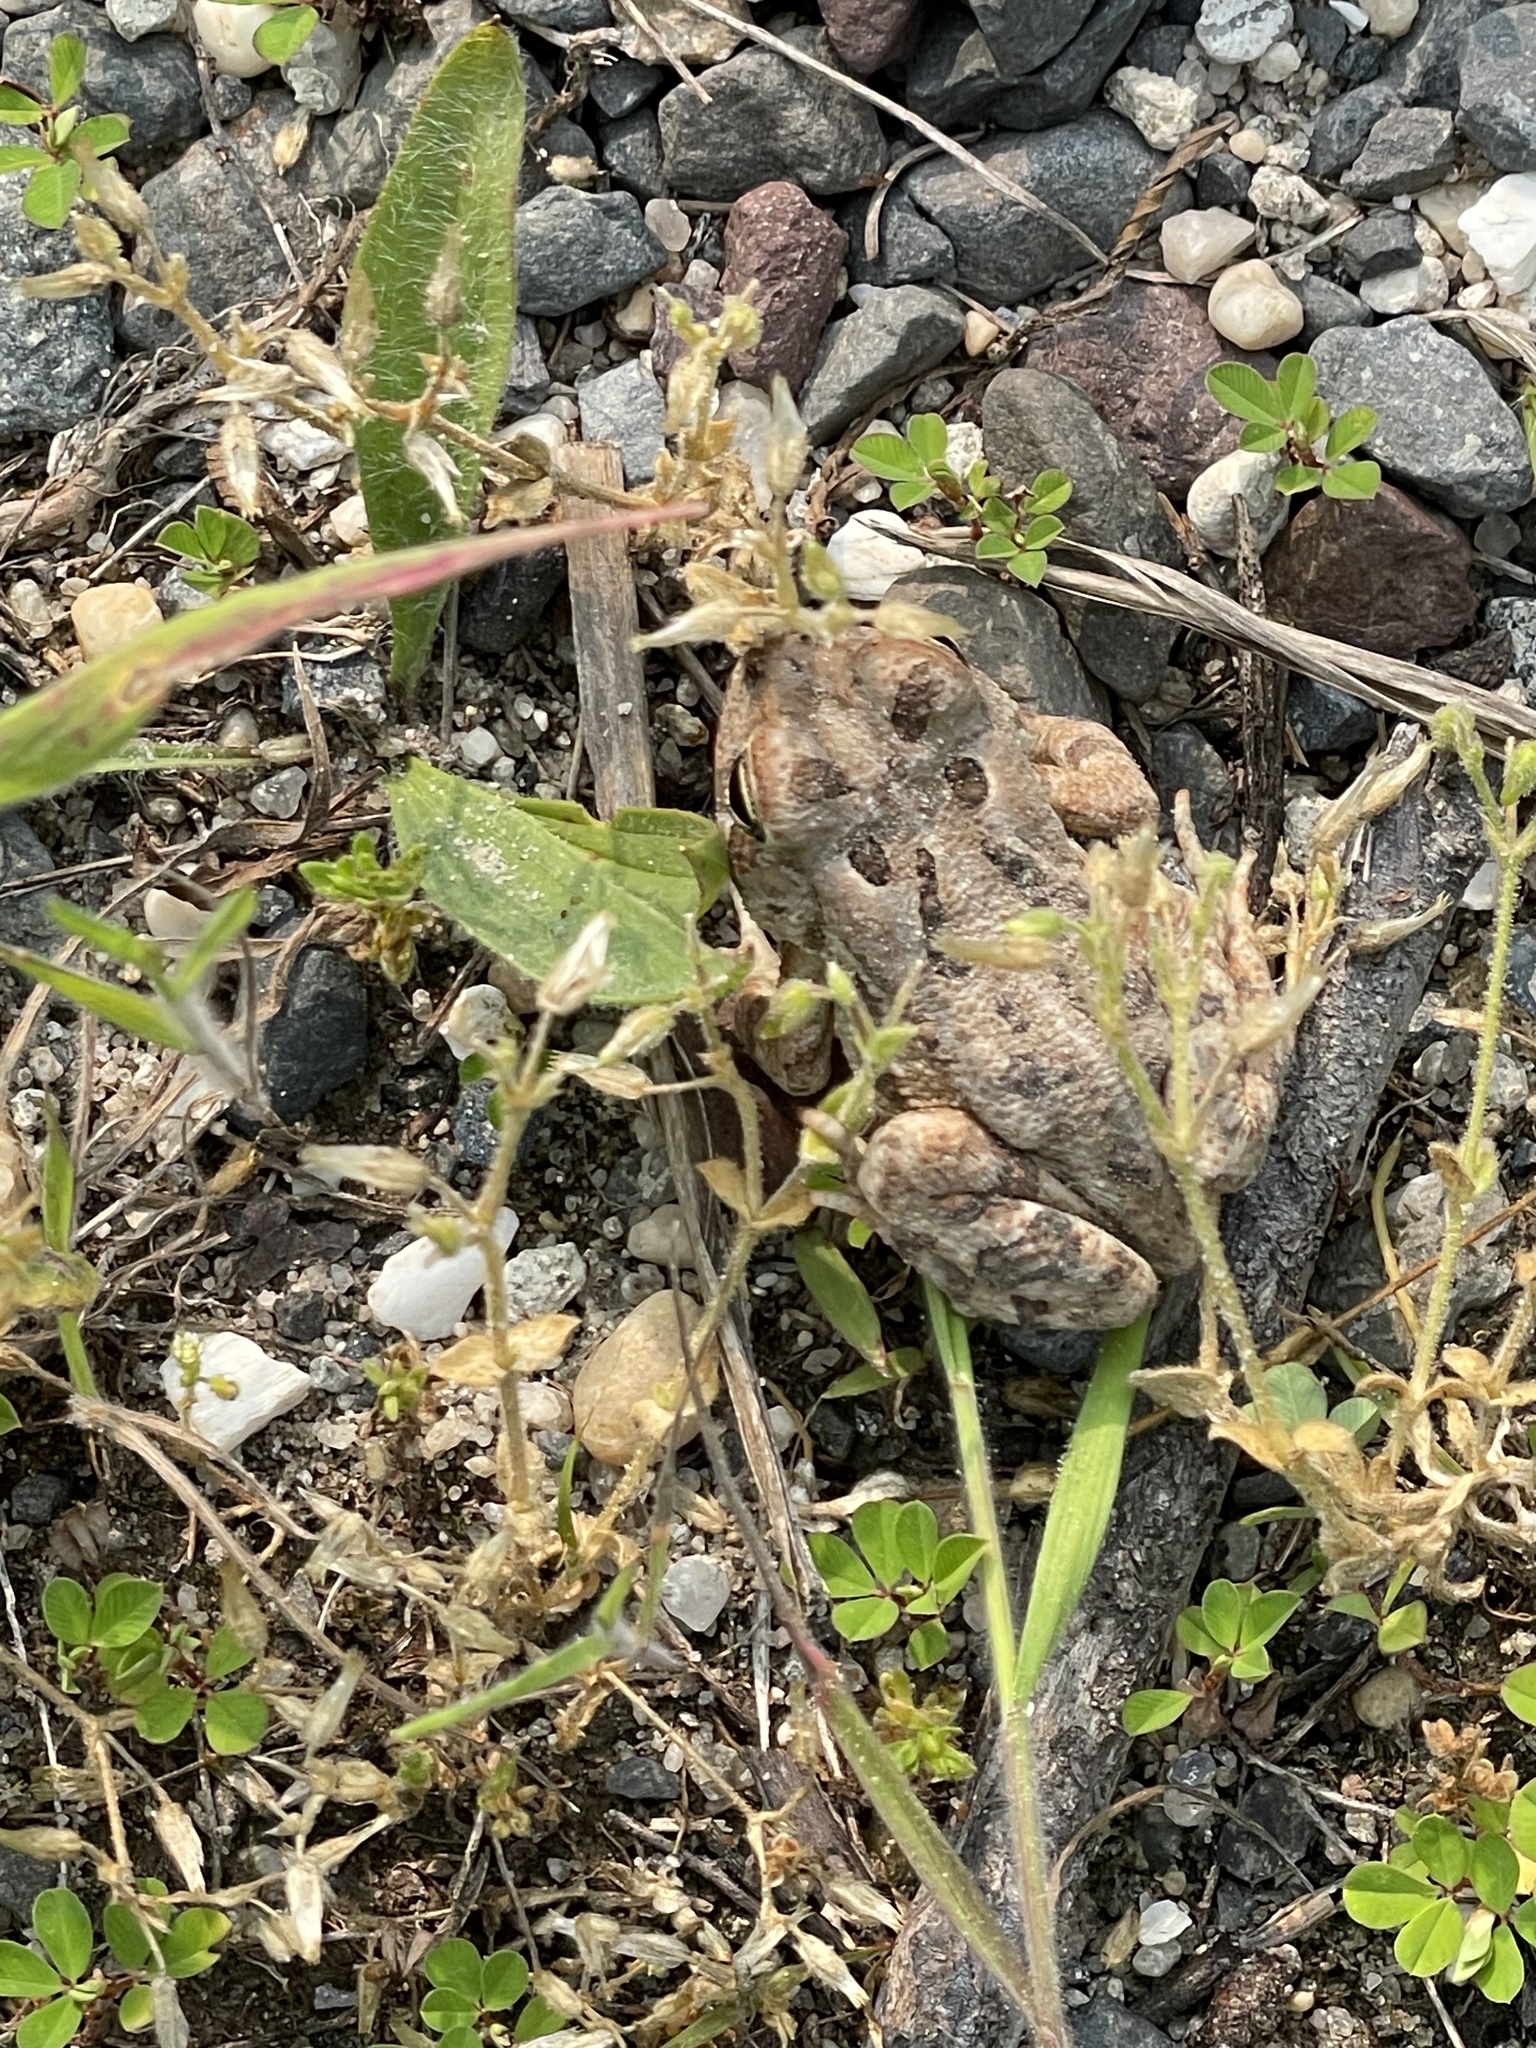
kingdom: Animalia
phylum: Chordata
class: Amphibia
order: Anura
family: Bufonidae
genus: Anaxyrus
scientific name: Anaxyrus fowleri
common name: Fowler's toad
